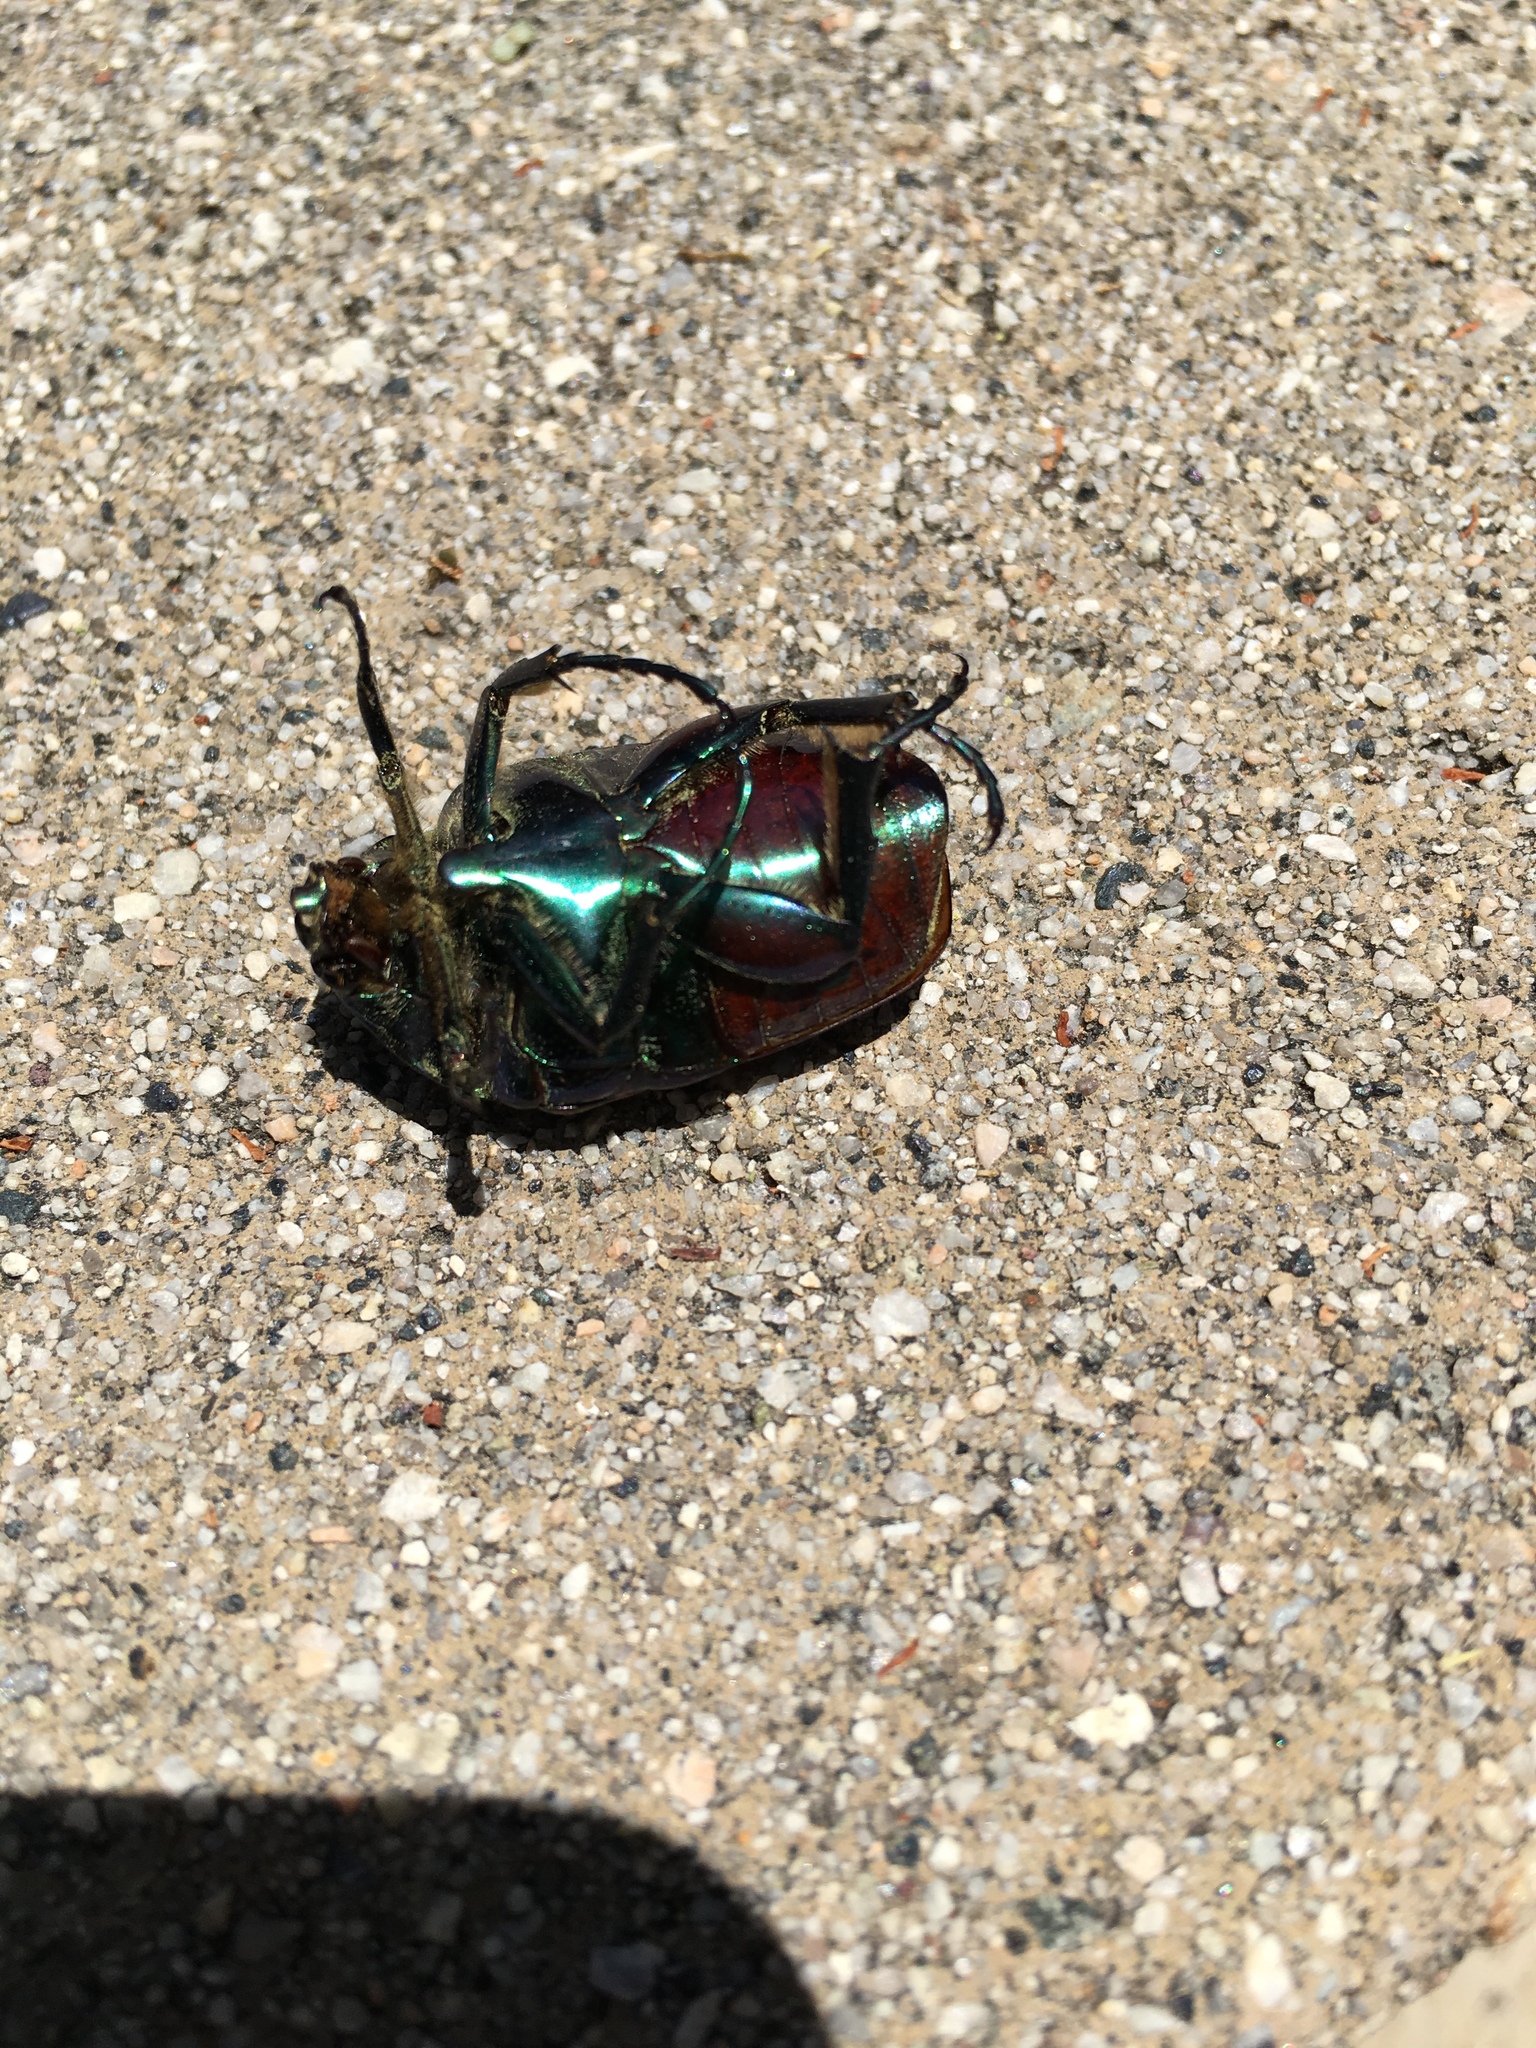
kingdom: Animalia
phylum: Arthropoda
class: Insecta
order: Coleoptera
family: Scarabaeidae
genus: Cotinis
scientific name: Cotinis mutabilis
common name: Figeater beetle
